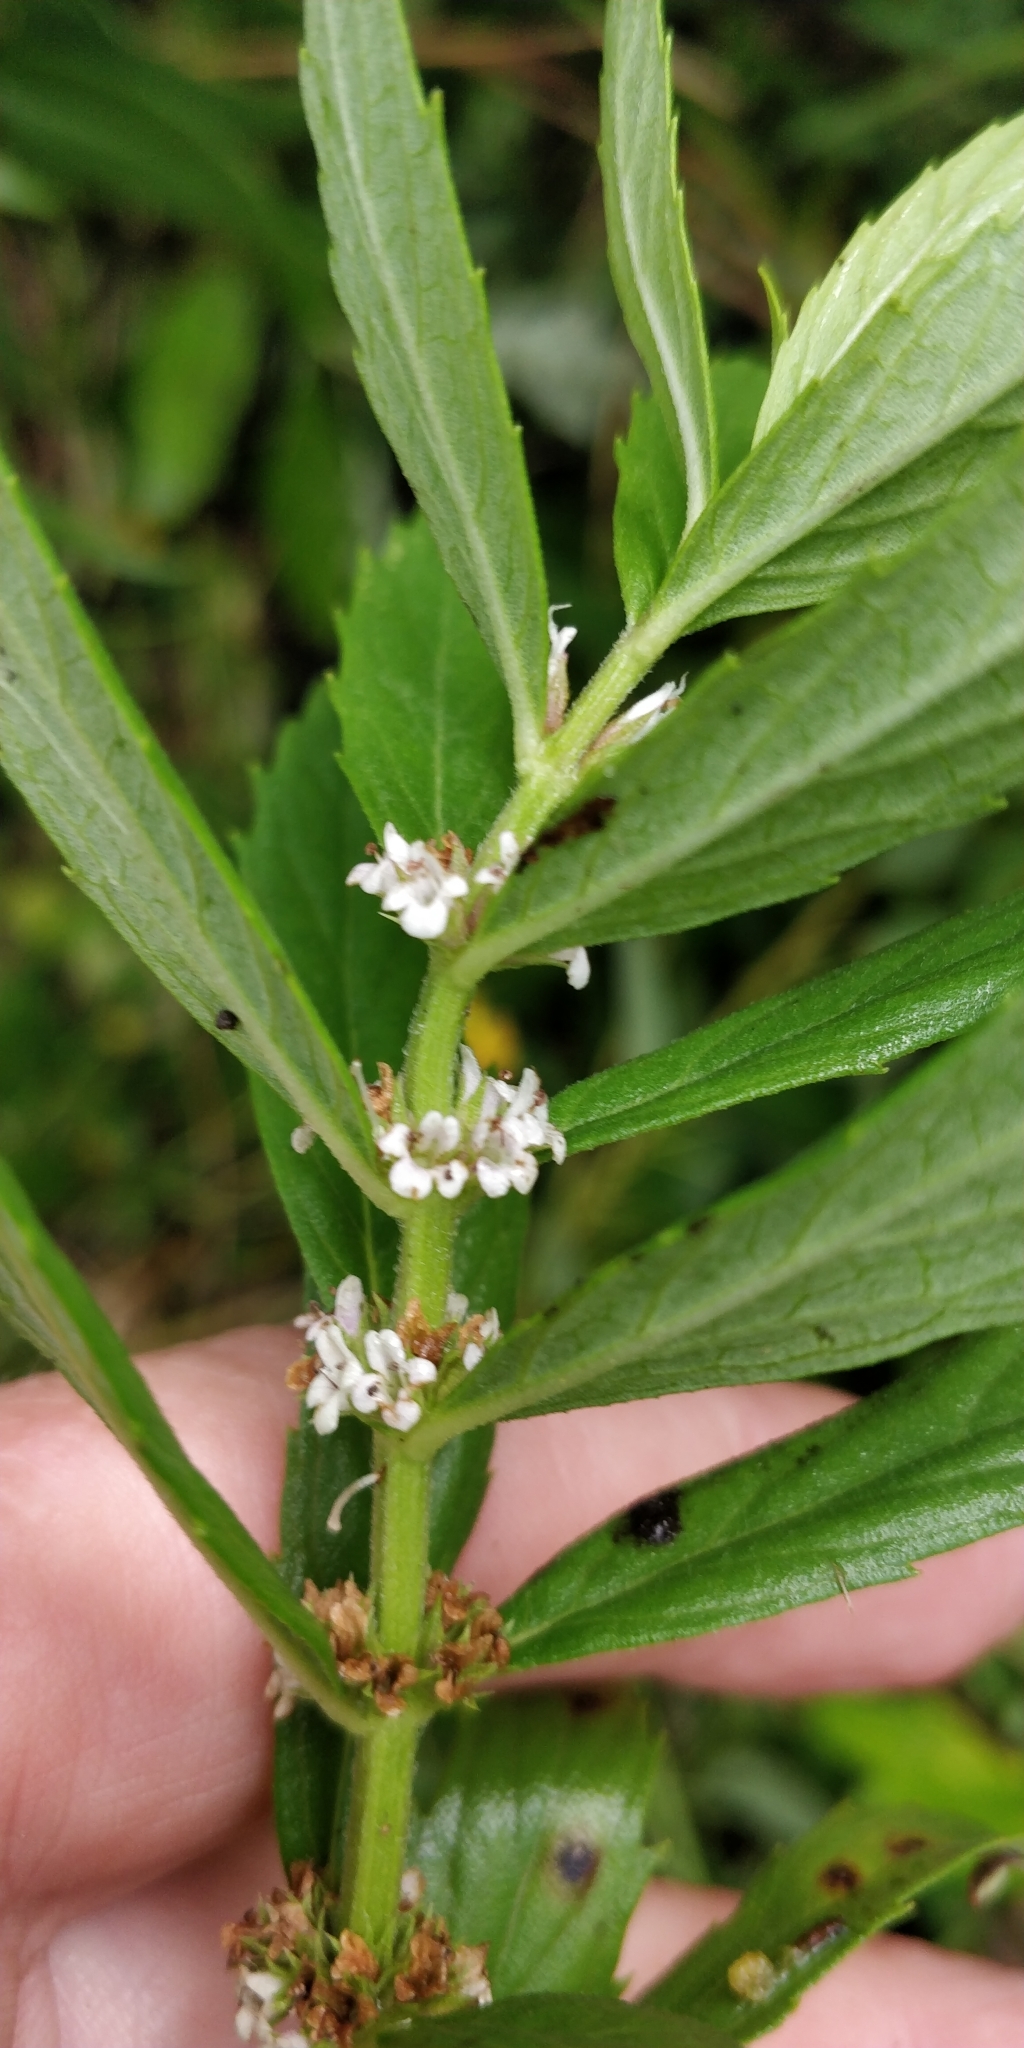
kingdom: Plantae
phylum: Tracheophyta
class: Magnoliopsida
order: Lamiales
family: Lamiaceae
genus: Lycopus
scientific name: Lycopus asper
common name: Rough water-horehound
